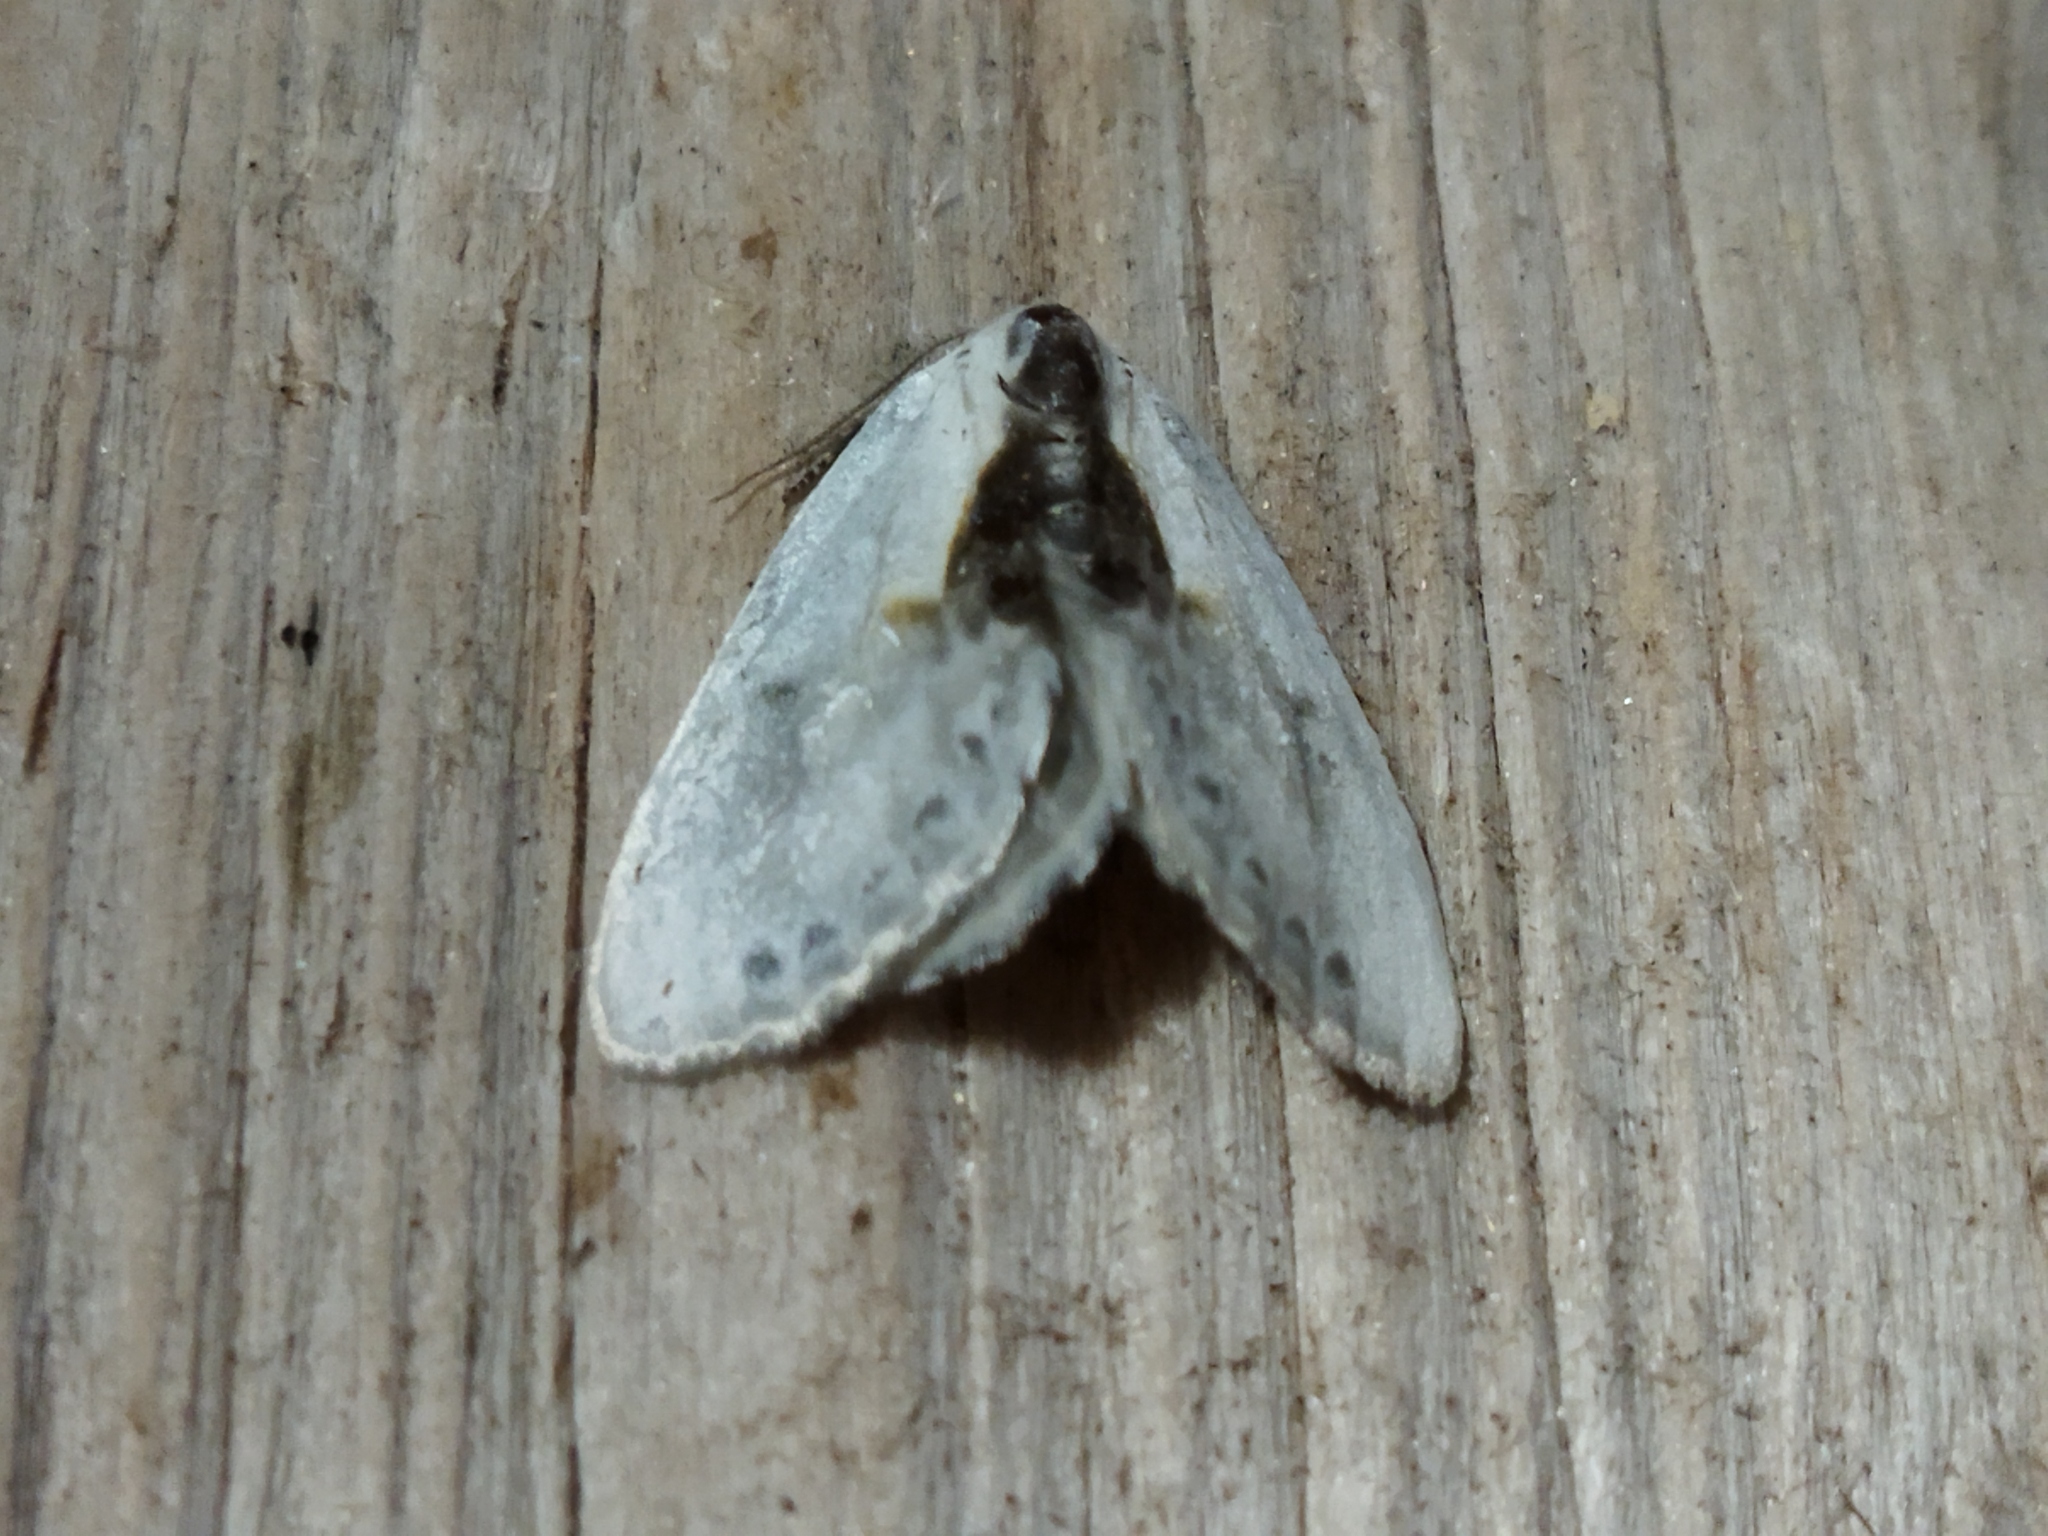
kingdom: Animalia
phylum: Arthropoda
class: Insecta
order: Lepidoptera
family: Drepanidae
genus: Cilix
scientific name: Cilix glaucata
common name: Chinese character
